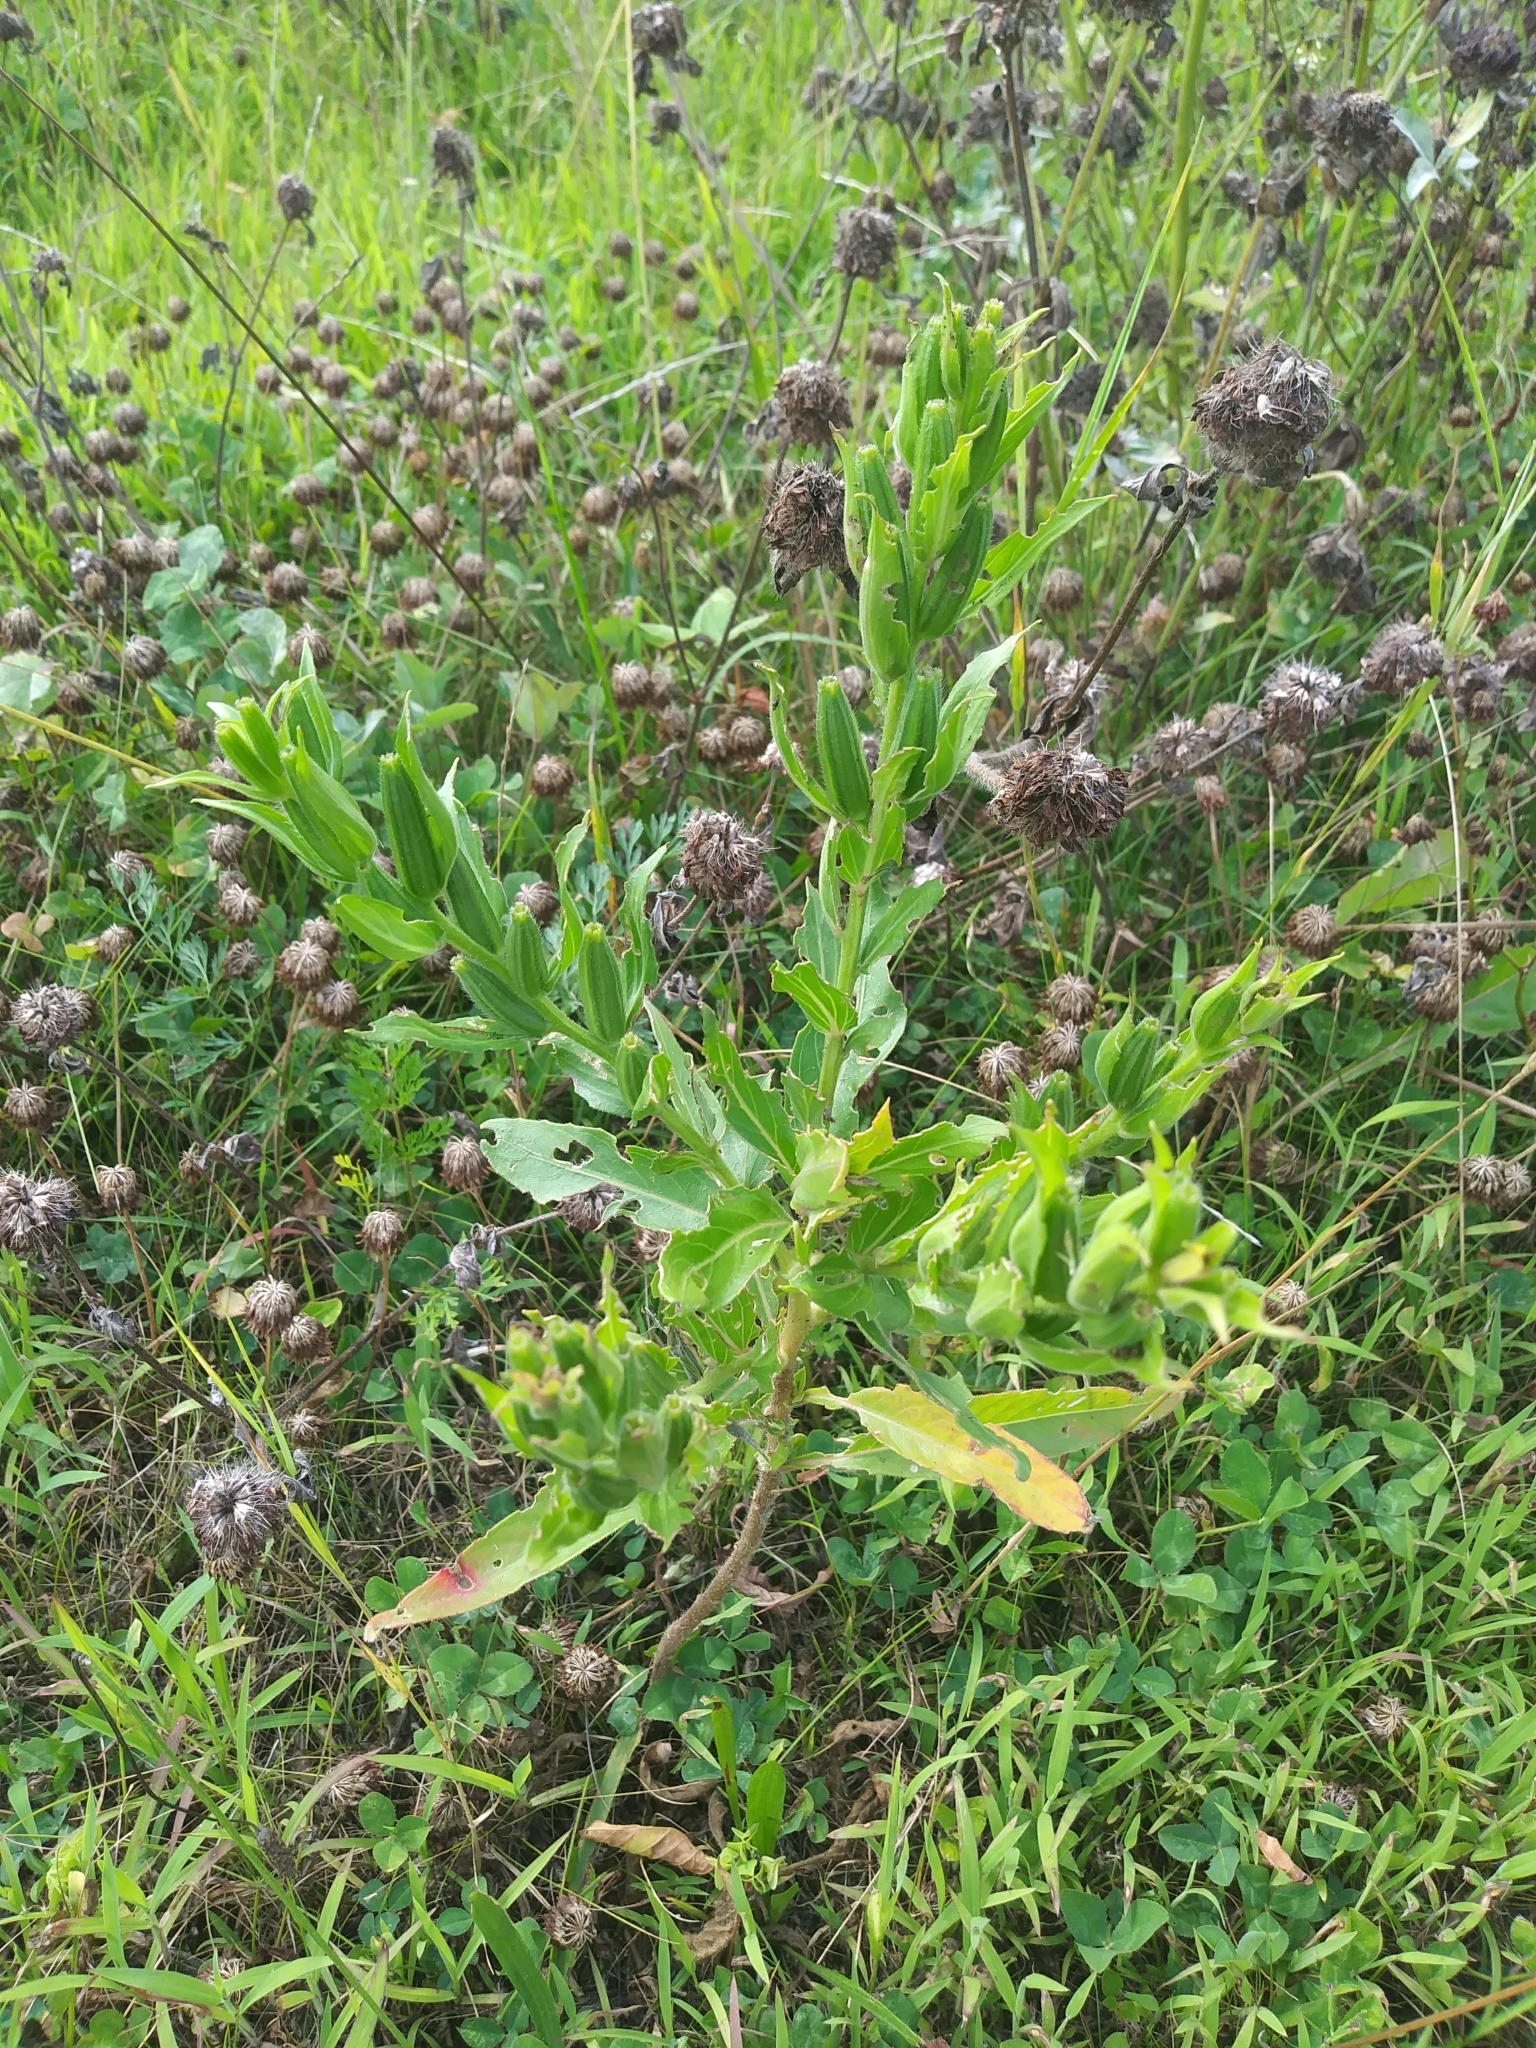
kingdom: Plantae
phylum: Tracheophyta
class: Magnoliopsida
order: Myrtales
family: Onagraceae
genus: Oenothera
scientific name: Oenothera biennis
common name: Common evening-primrose
